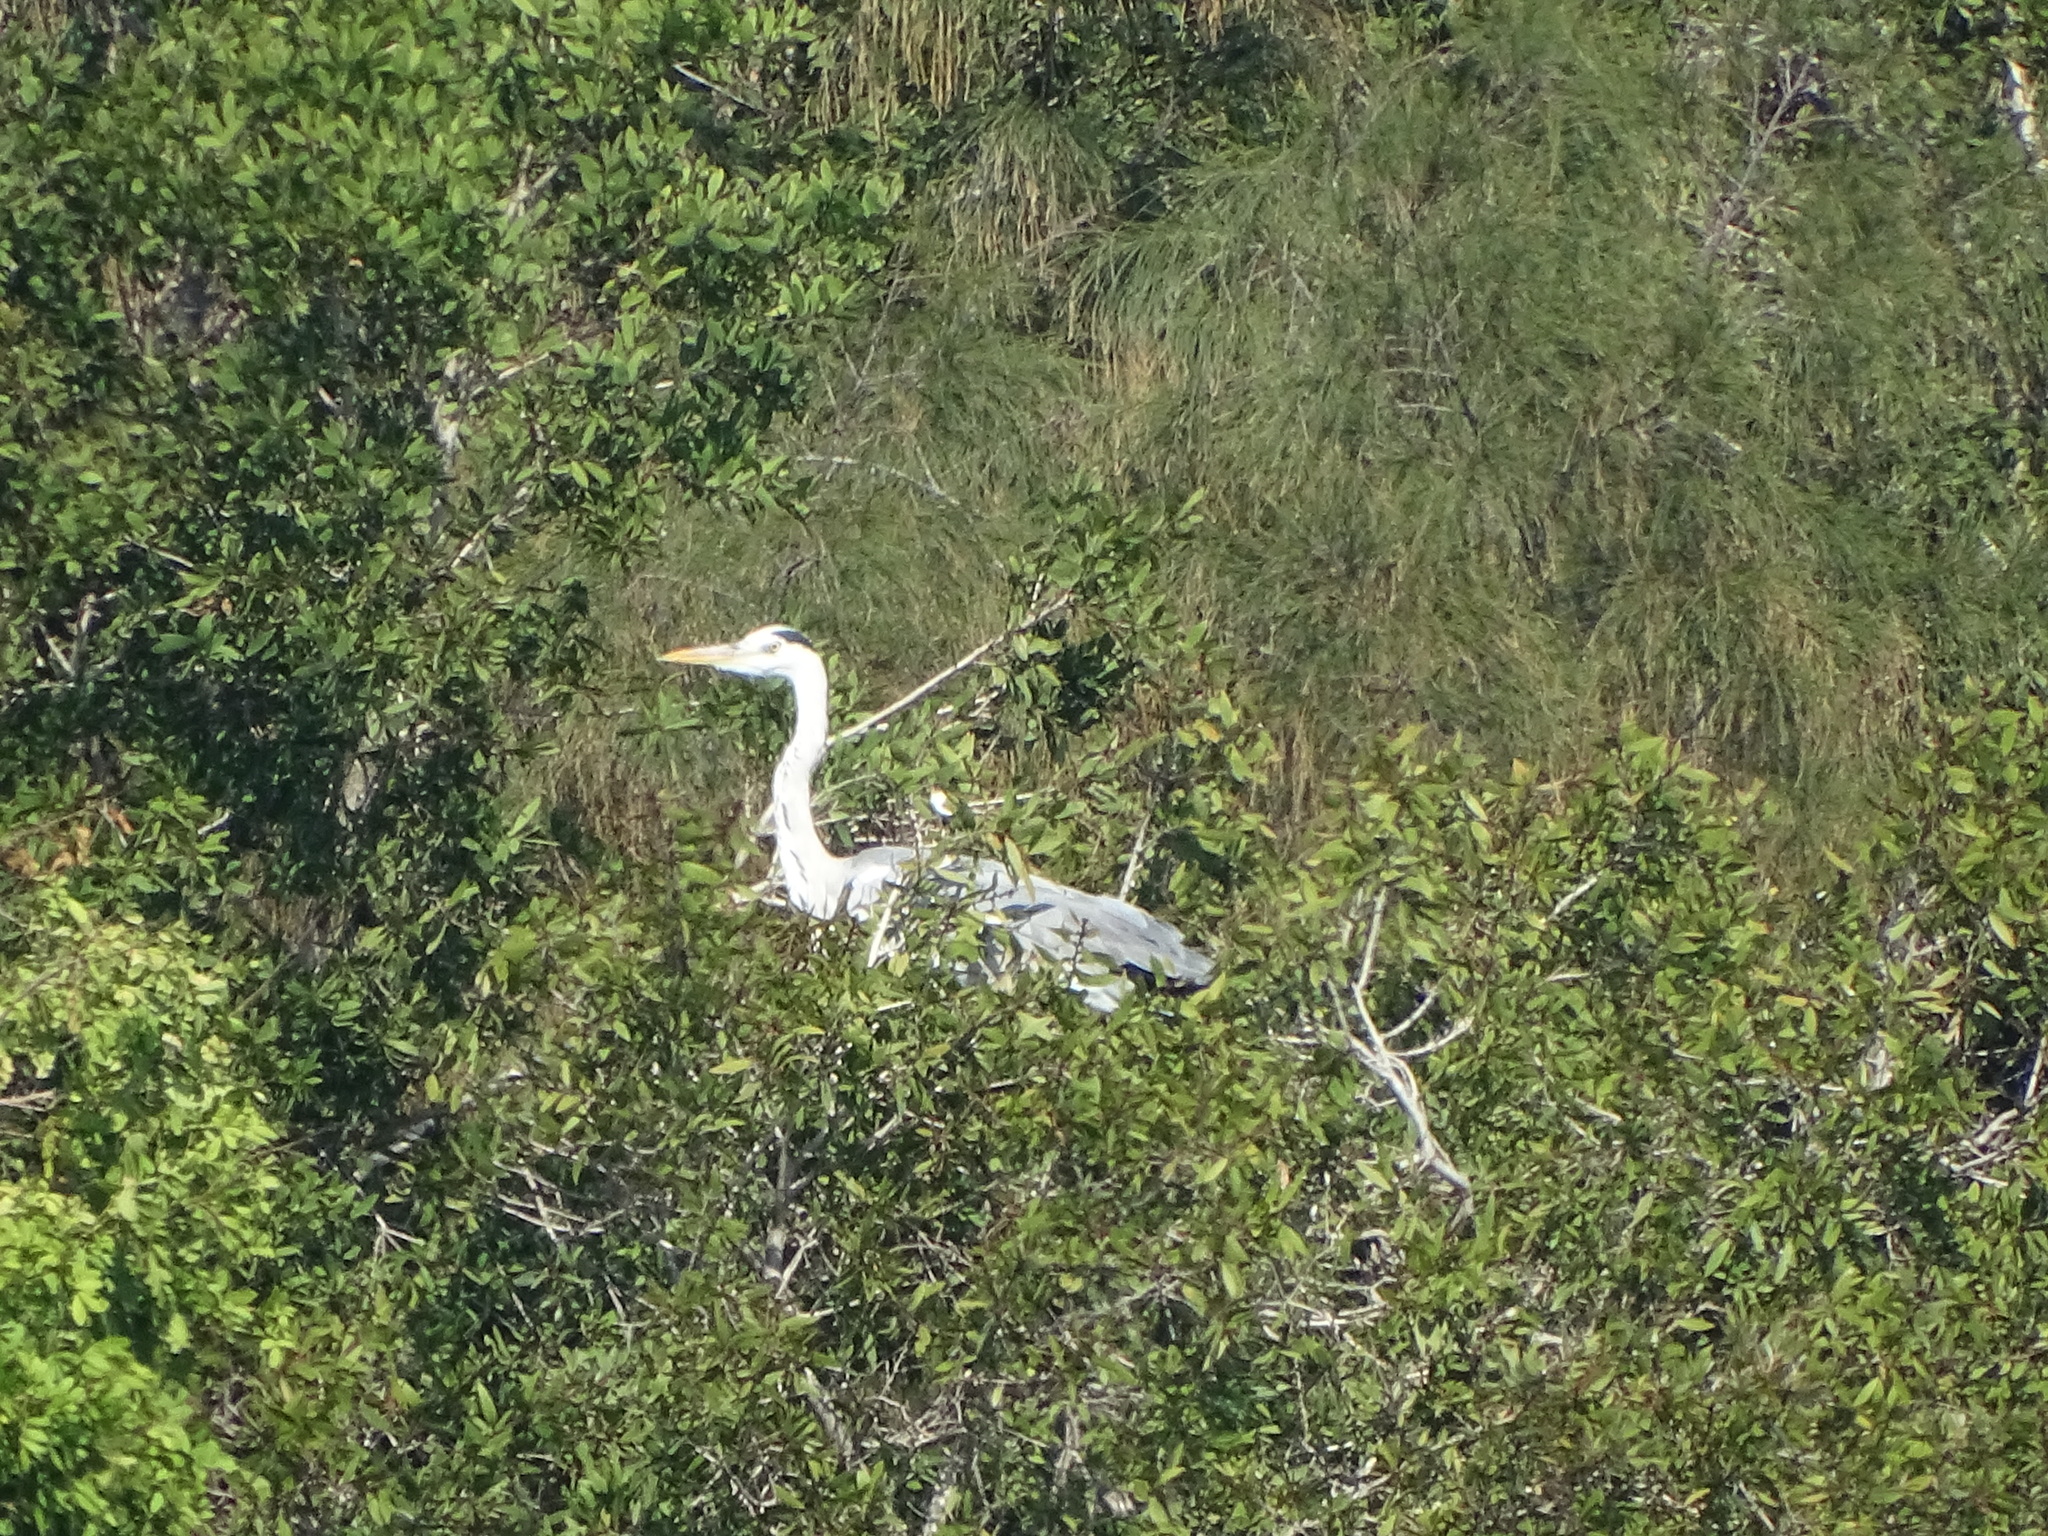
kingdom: Animalia
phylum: Chordata
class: Aves
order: Pelecaniformes
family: Ardeidae
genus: Ardea
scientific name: Ardea cinerea
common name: Grey heron
